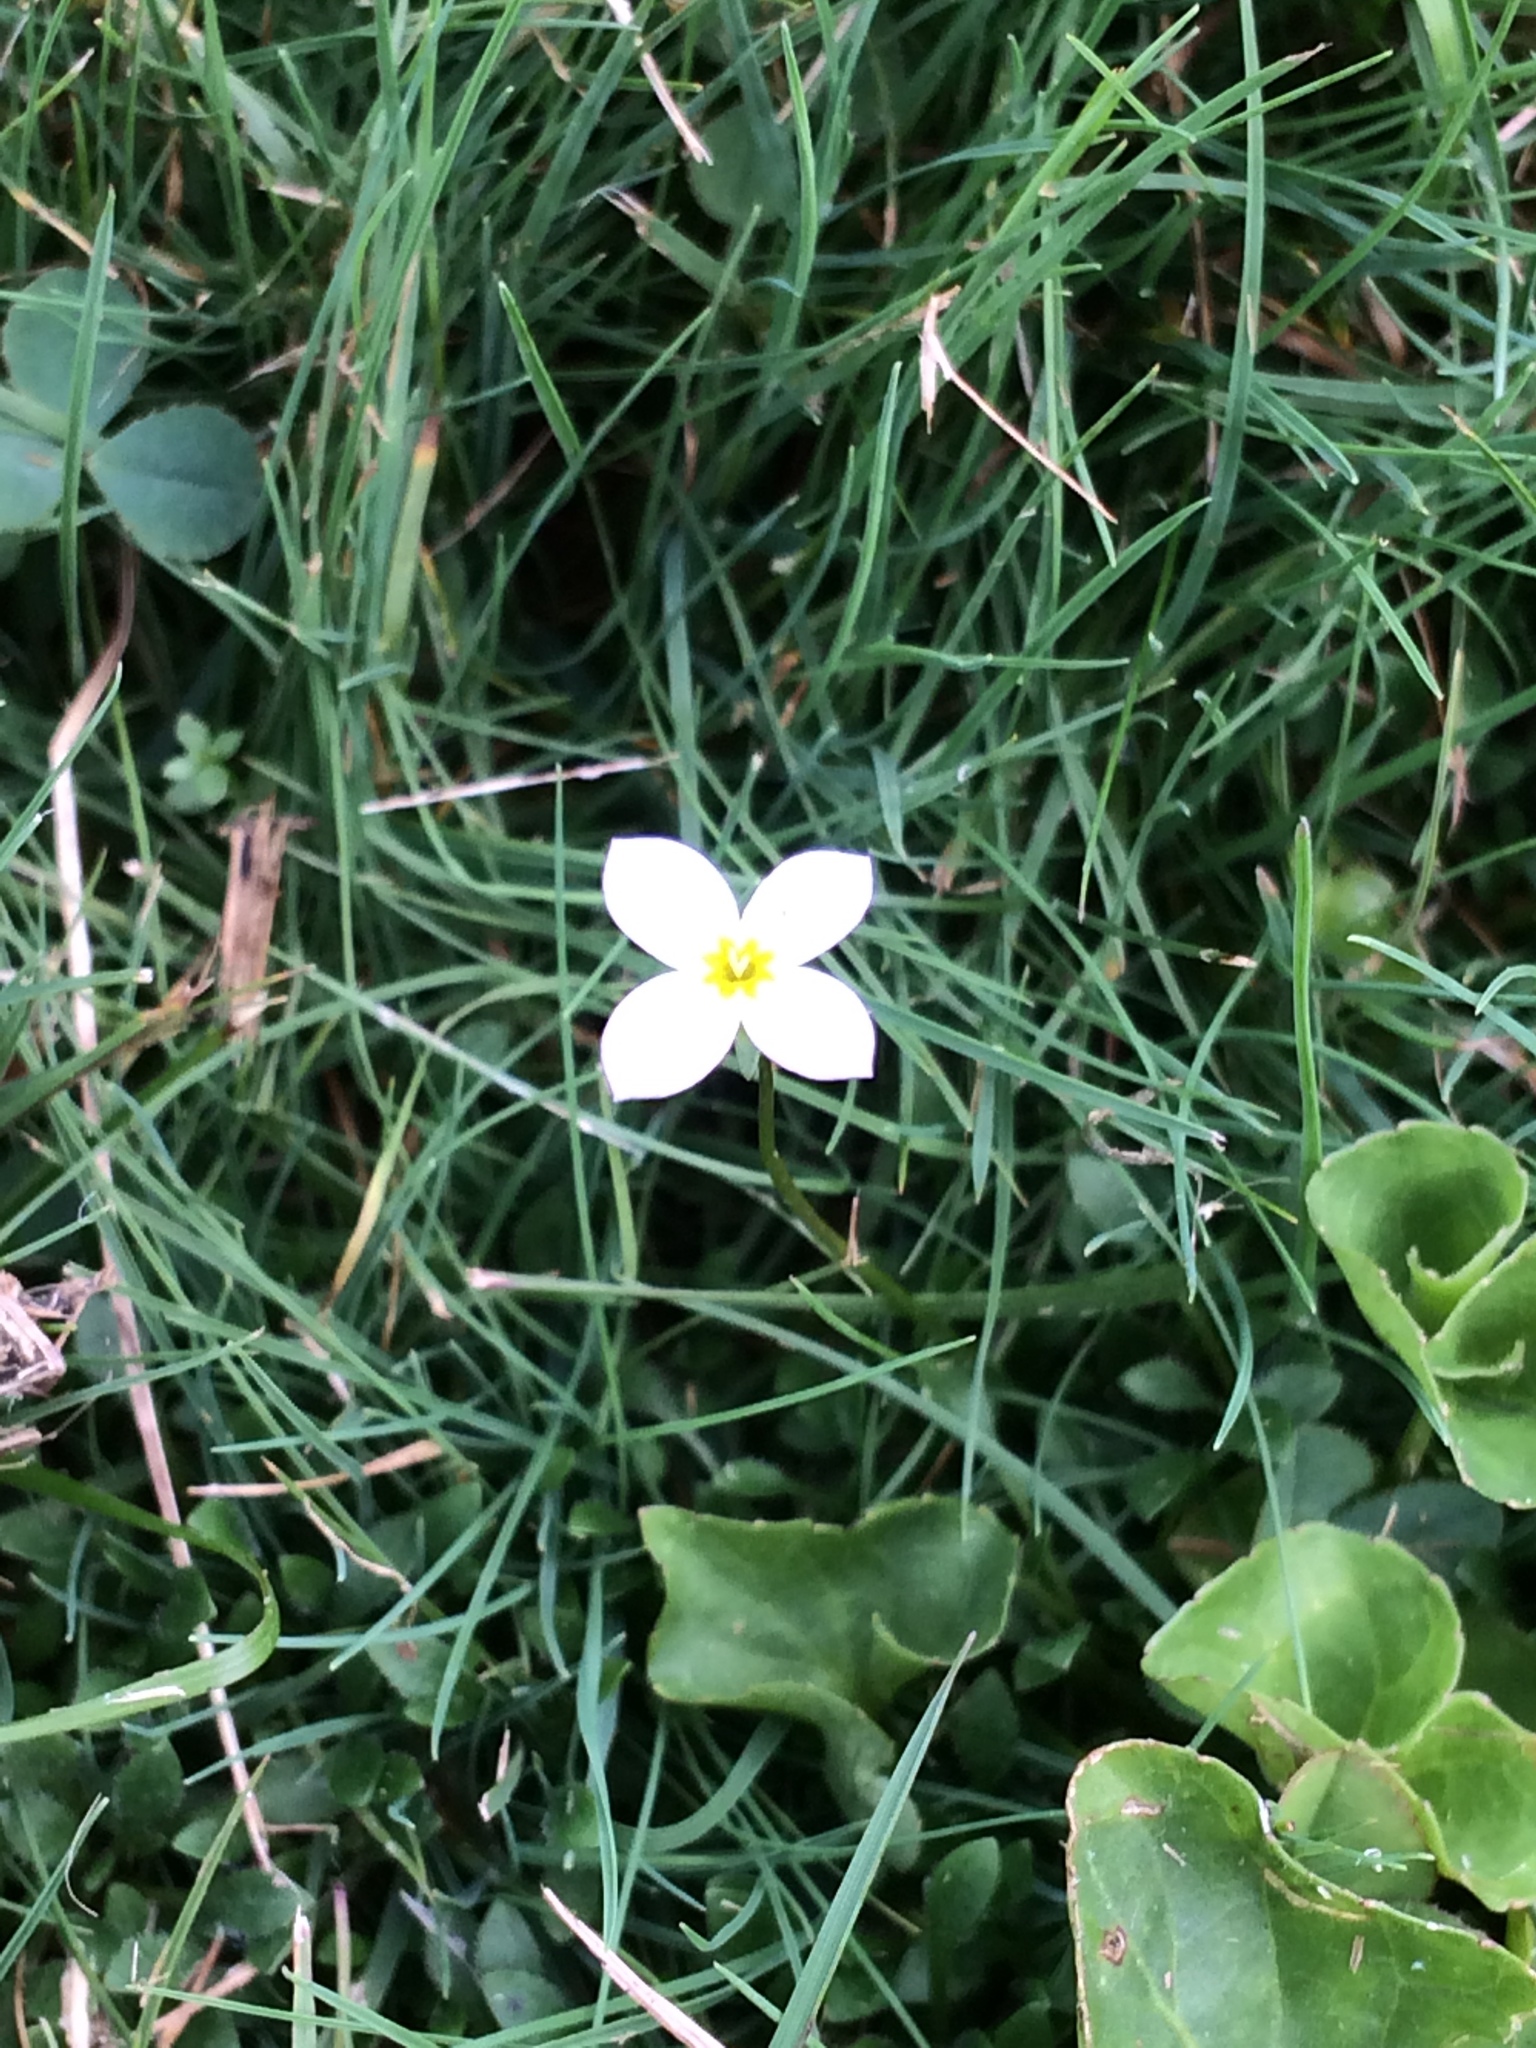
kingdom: Plantae
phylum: Tracheophyta
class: Magnoliopsida
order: Gentianales
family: Rubiaceae
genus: Houstonia
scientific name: Houstonia caerulea
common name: Bluets
